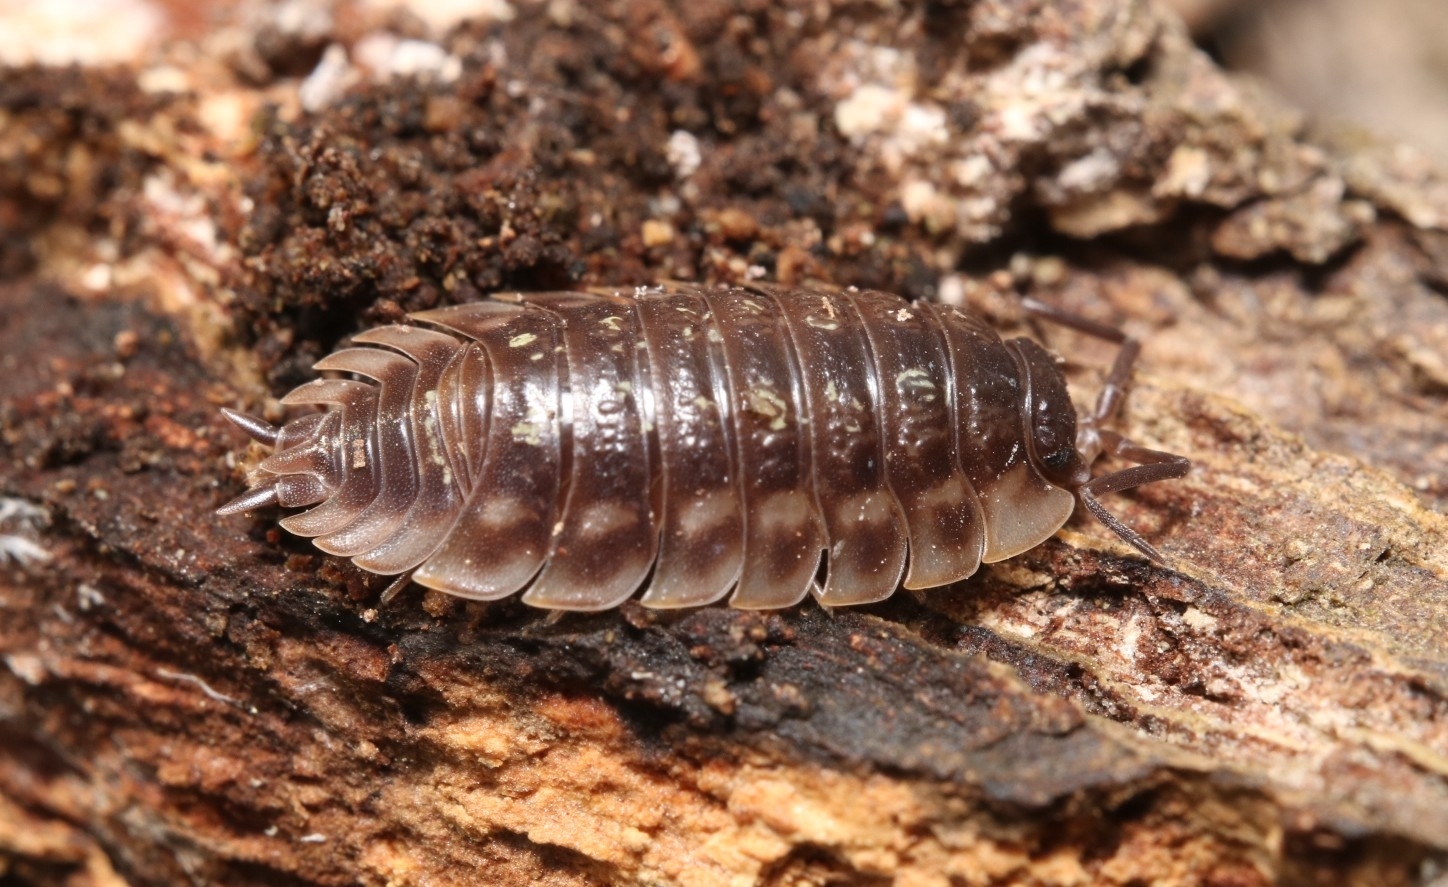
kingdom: Animalia
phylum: Arthropoda
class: Malacostraca
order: Isopoda
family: Oniscidae
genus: Oniscus
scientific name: Oniscus asellus
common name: Common shiny woodlouse
